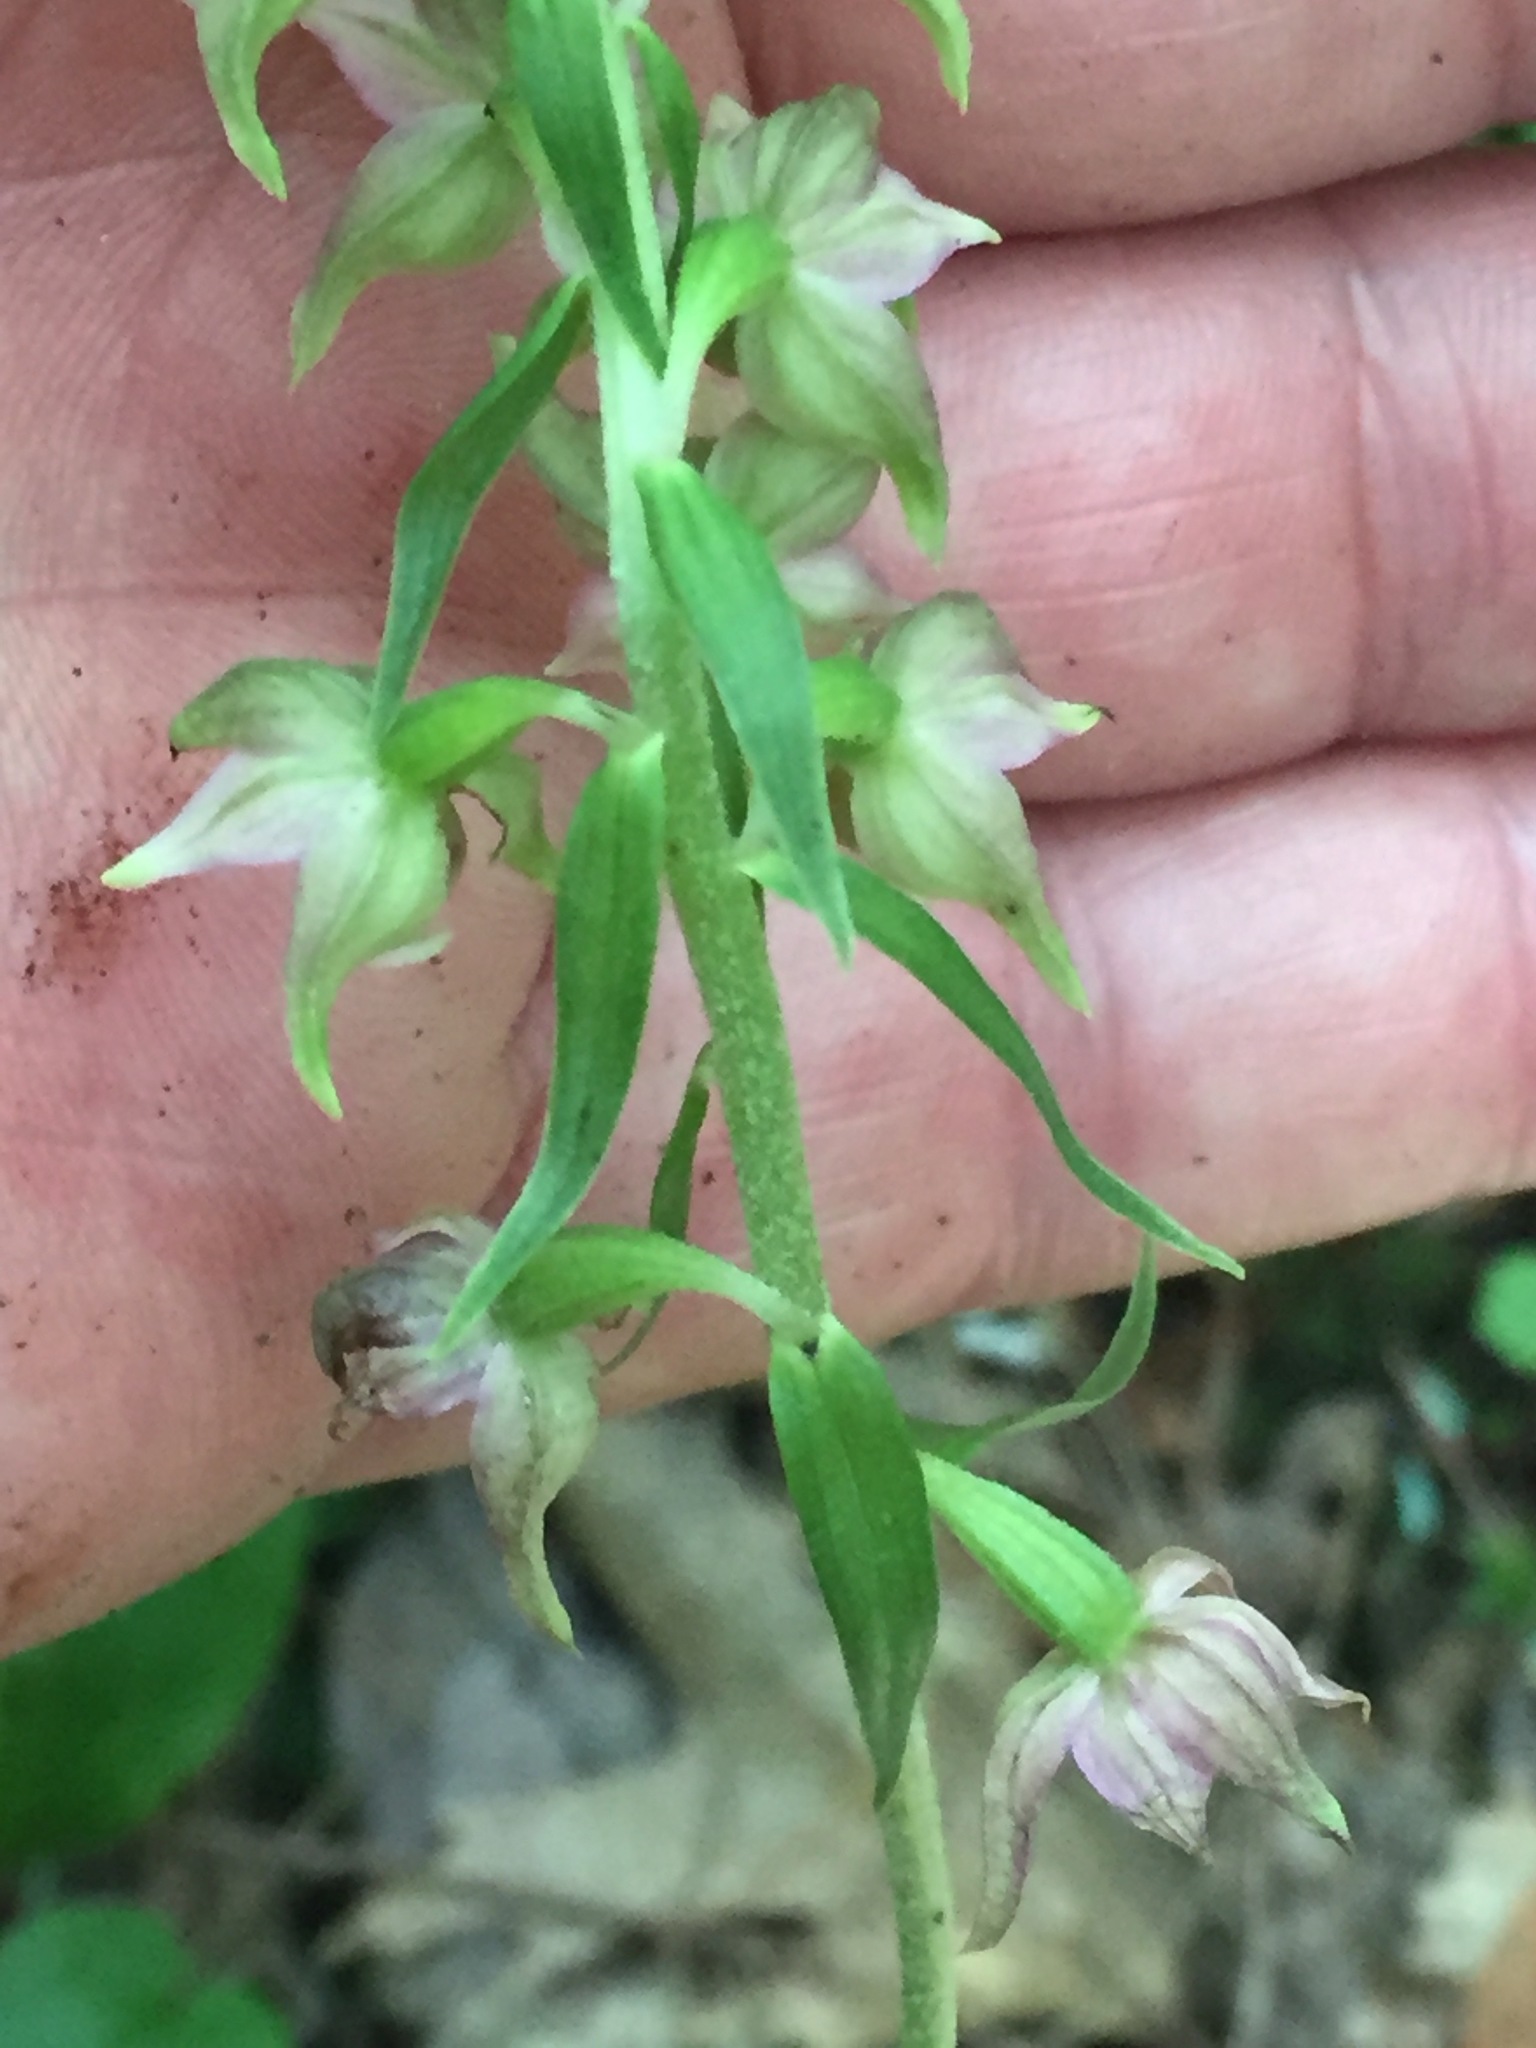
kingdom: Plantae
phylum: Tracheophyta
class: Liliopsida
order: Asparagales
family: Orchidaceae
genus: Epipactis
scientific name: Epipactis helleborine
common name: Broad-leaved helleborine
